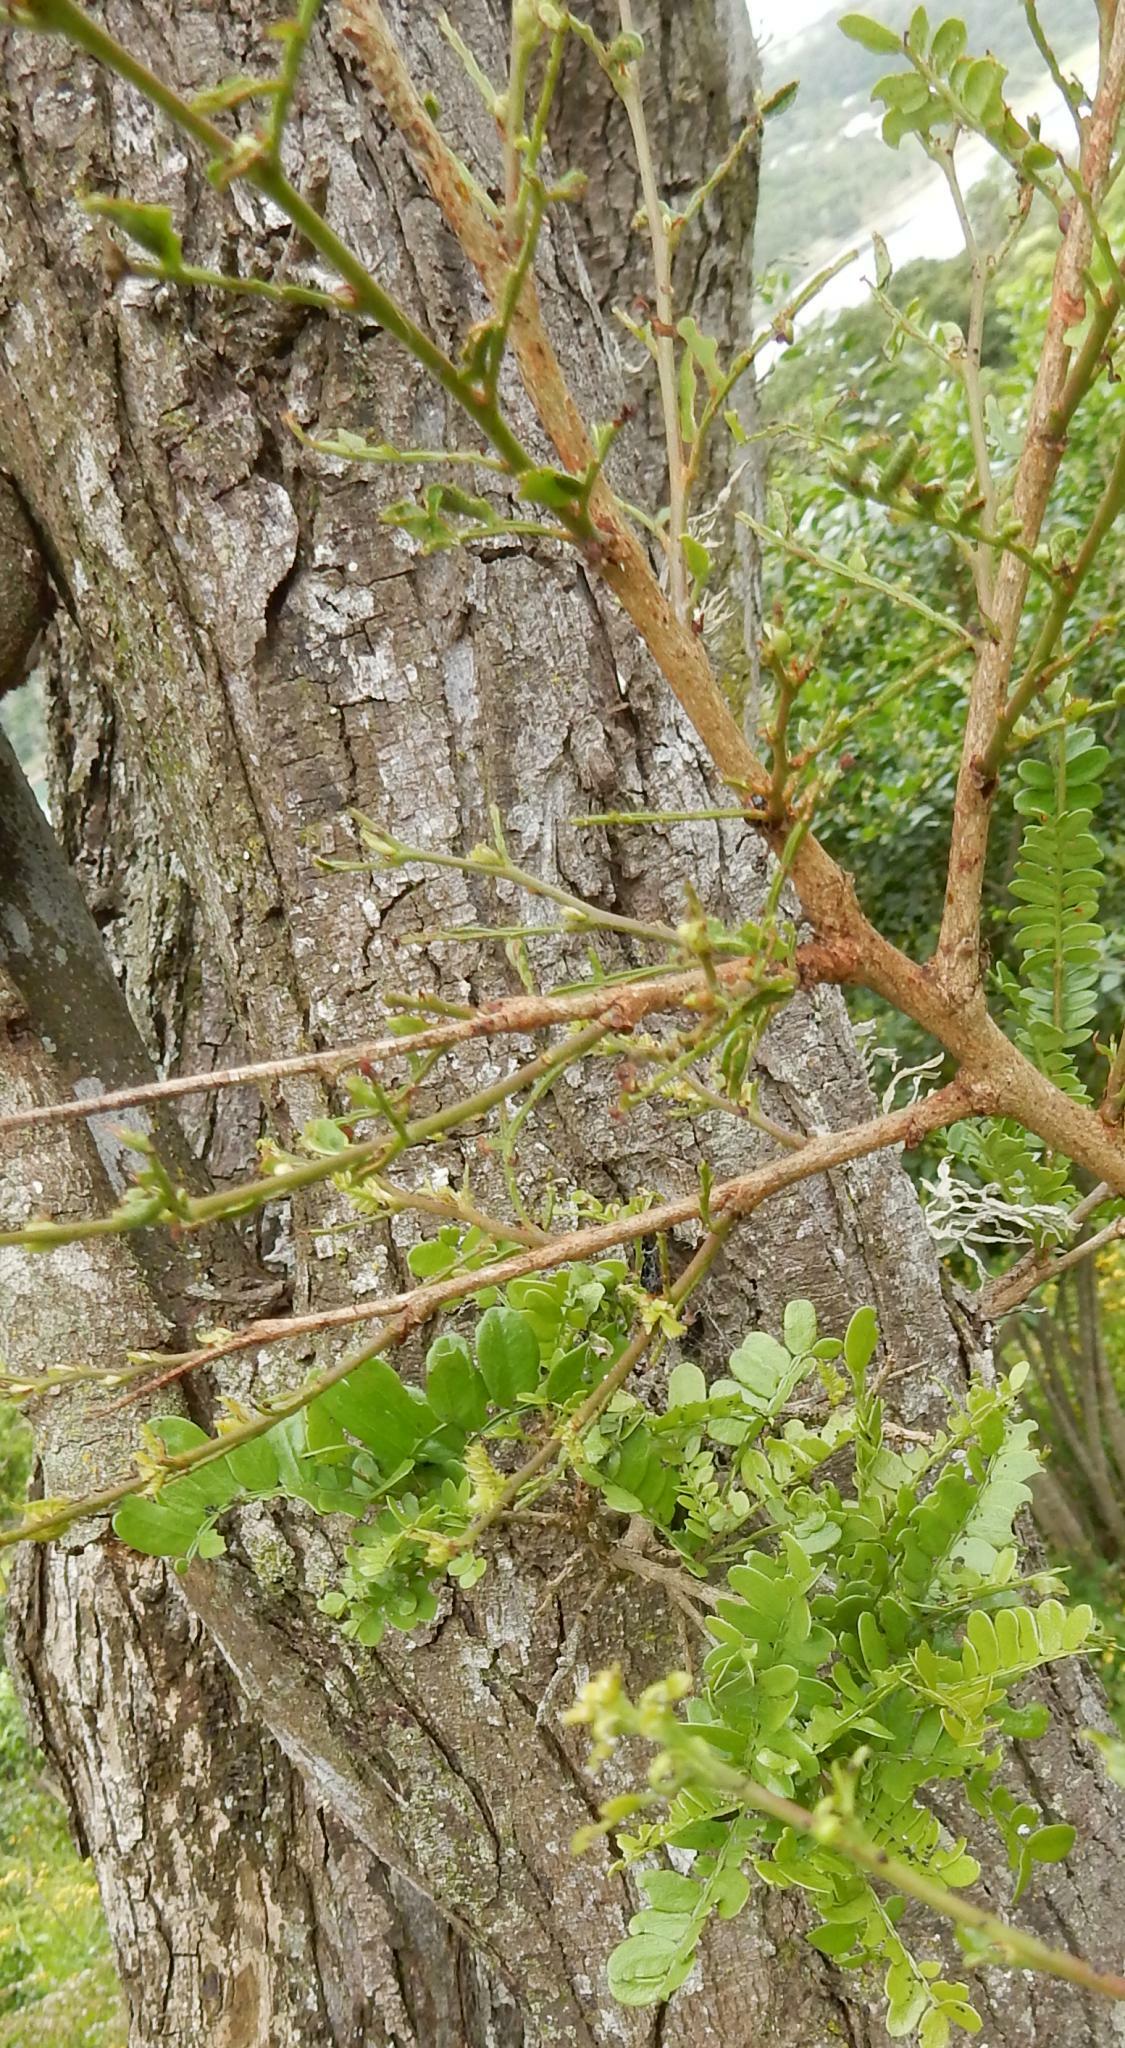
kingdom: Plantae
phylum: Tracheophyta
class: Magnoliopsida
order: Fabales
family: Fabaceae
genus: Schotia
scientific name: Schotia afra
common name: Hottentot's bean
